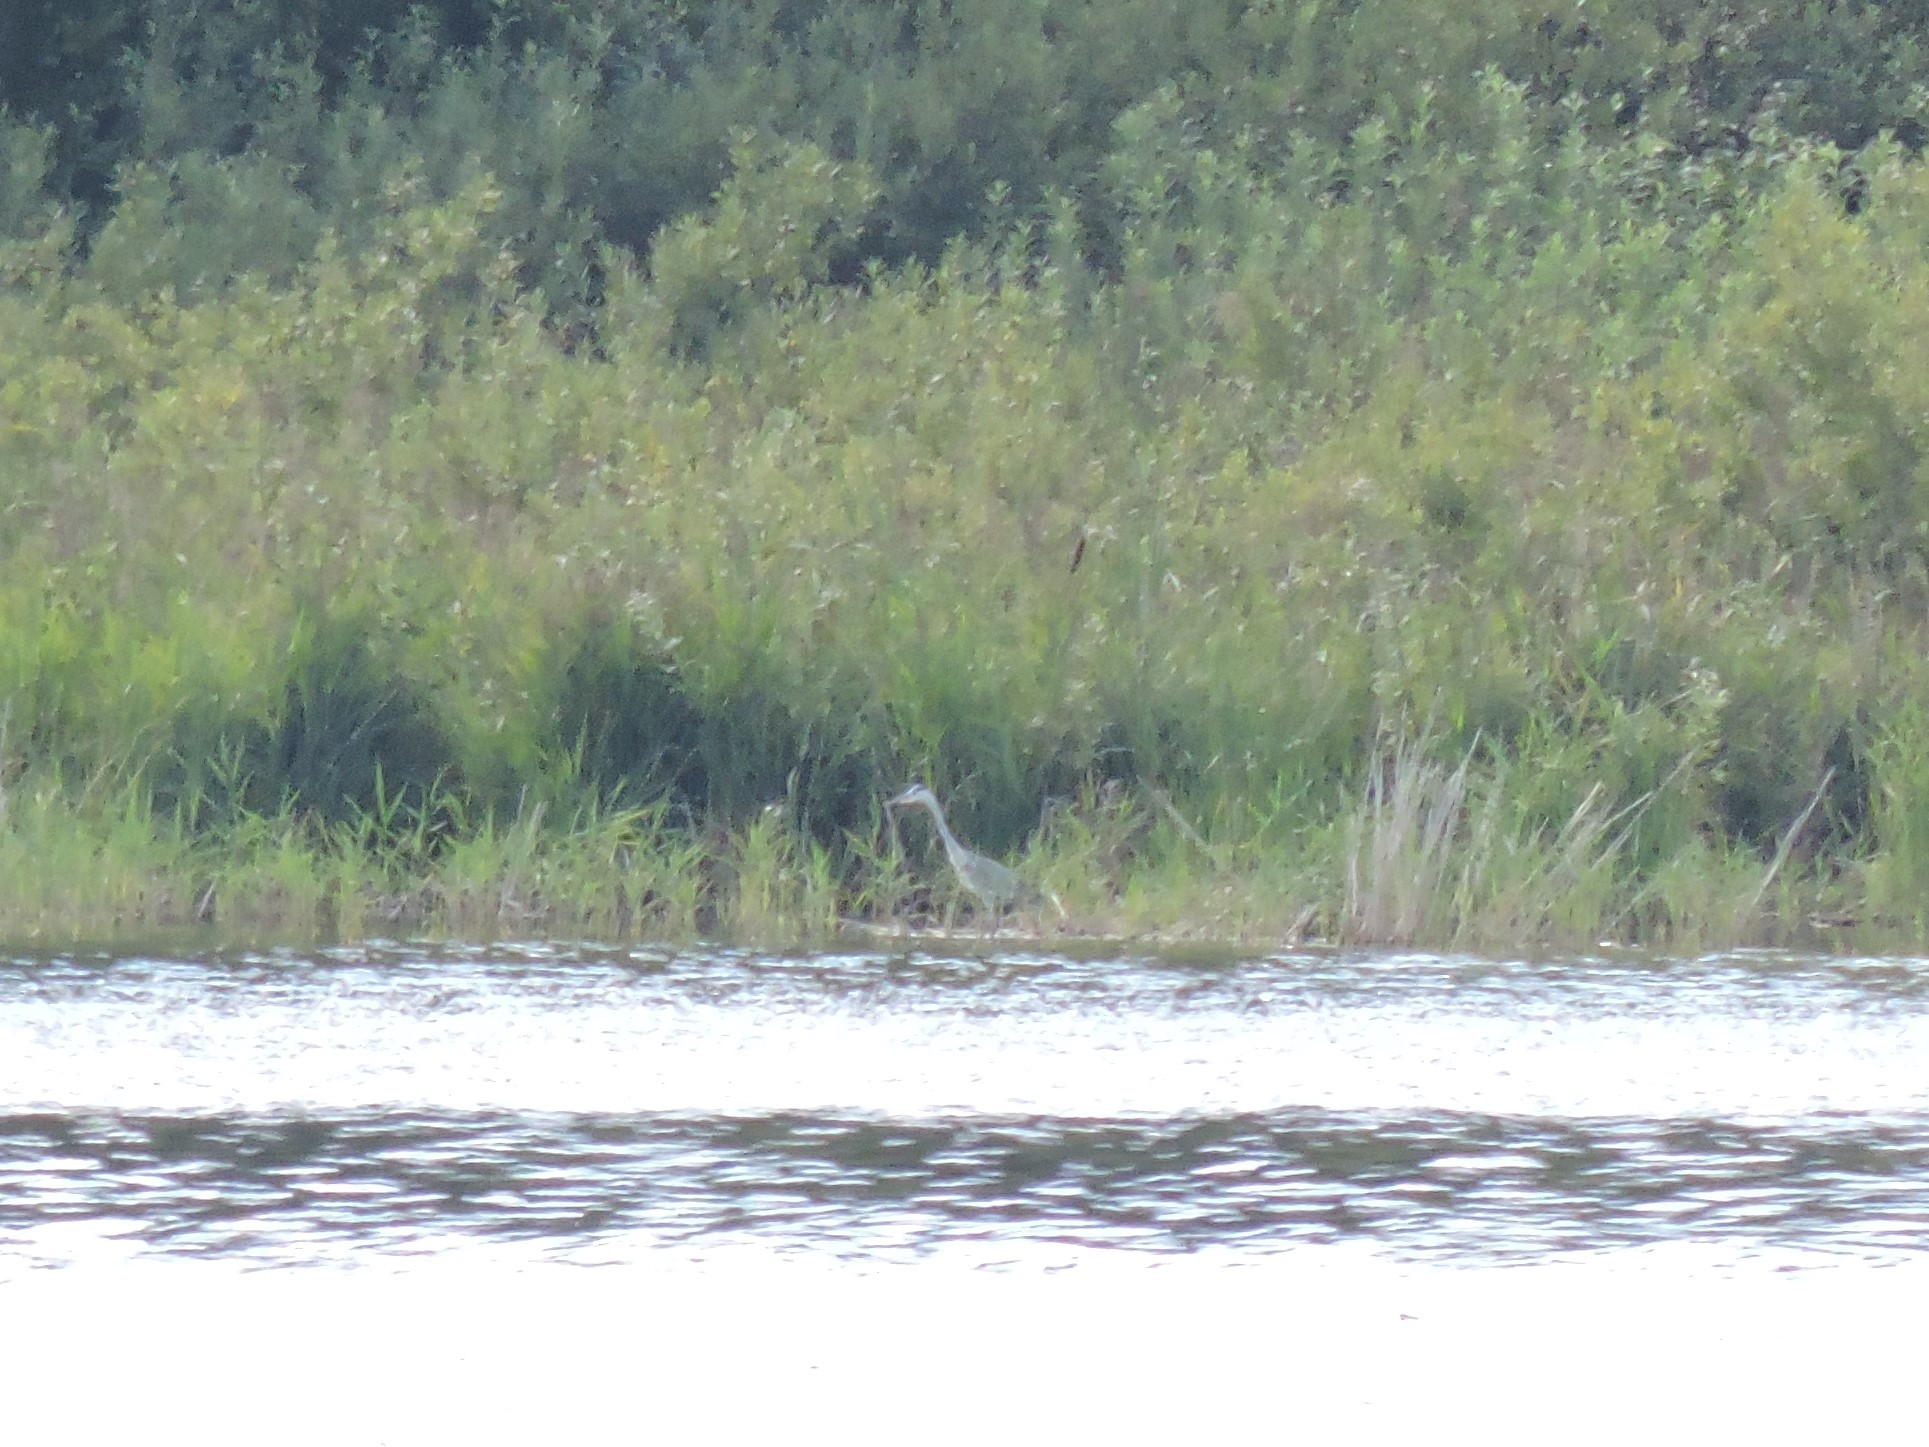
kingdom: Animalia
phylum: Chordata
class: Aves
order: Pelecaniformes
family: Ardeidae
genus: Ardea
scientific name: Ardea cinerea
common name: Grey heron
